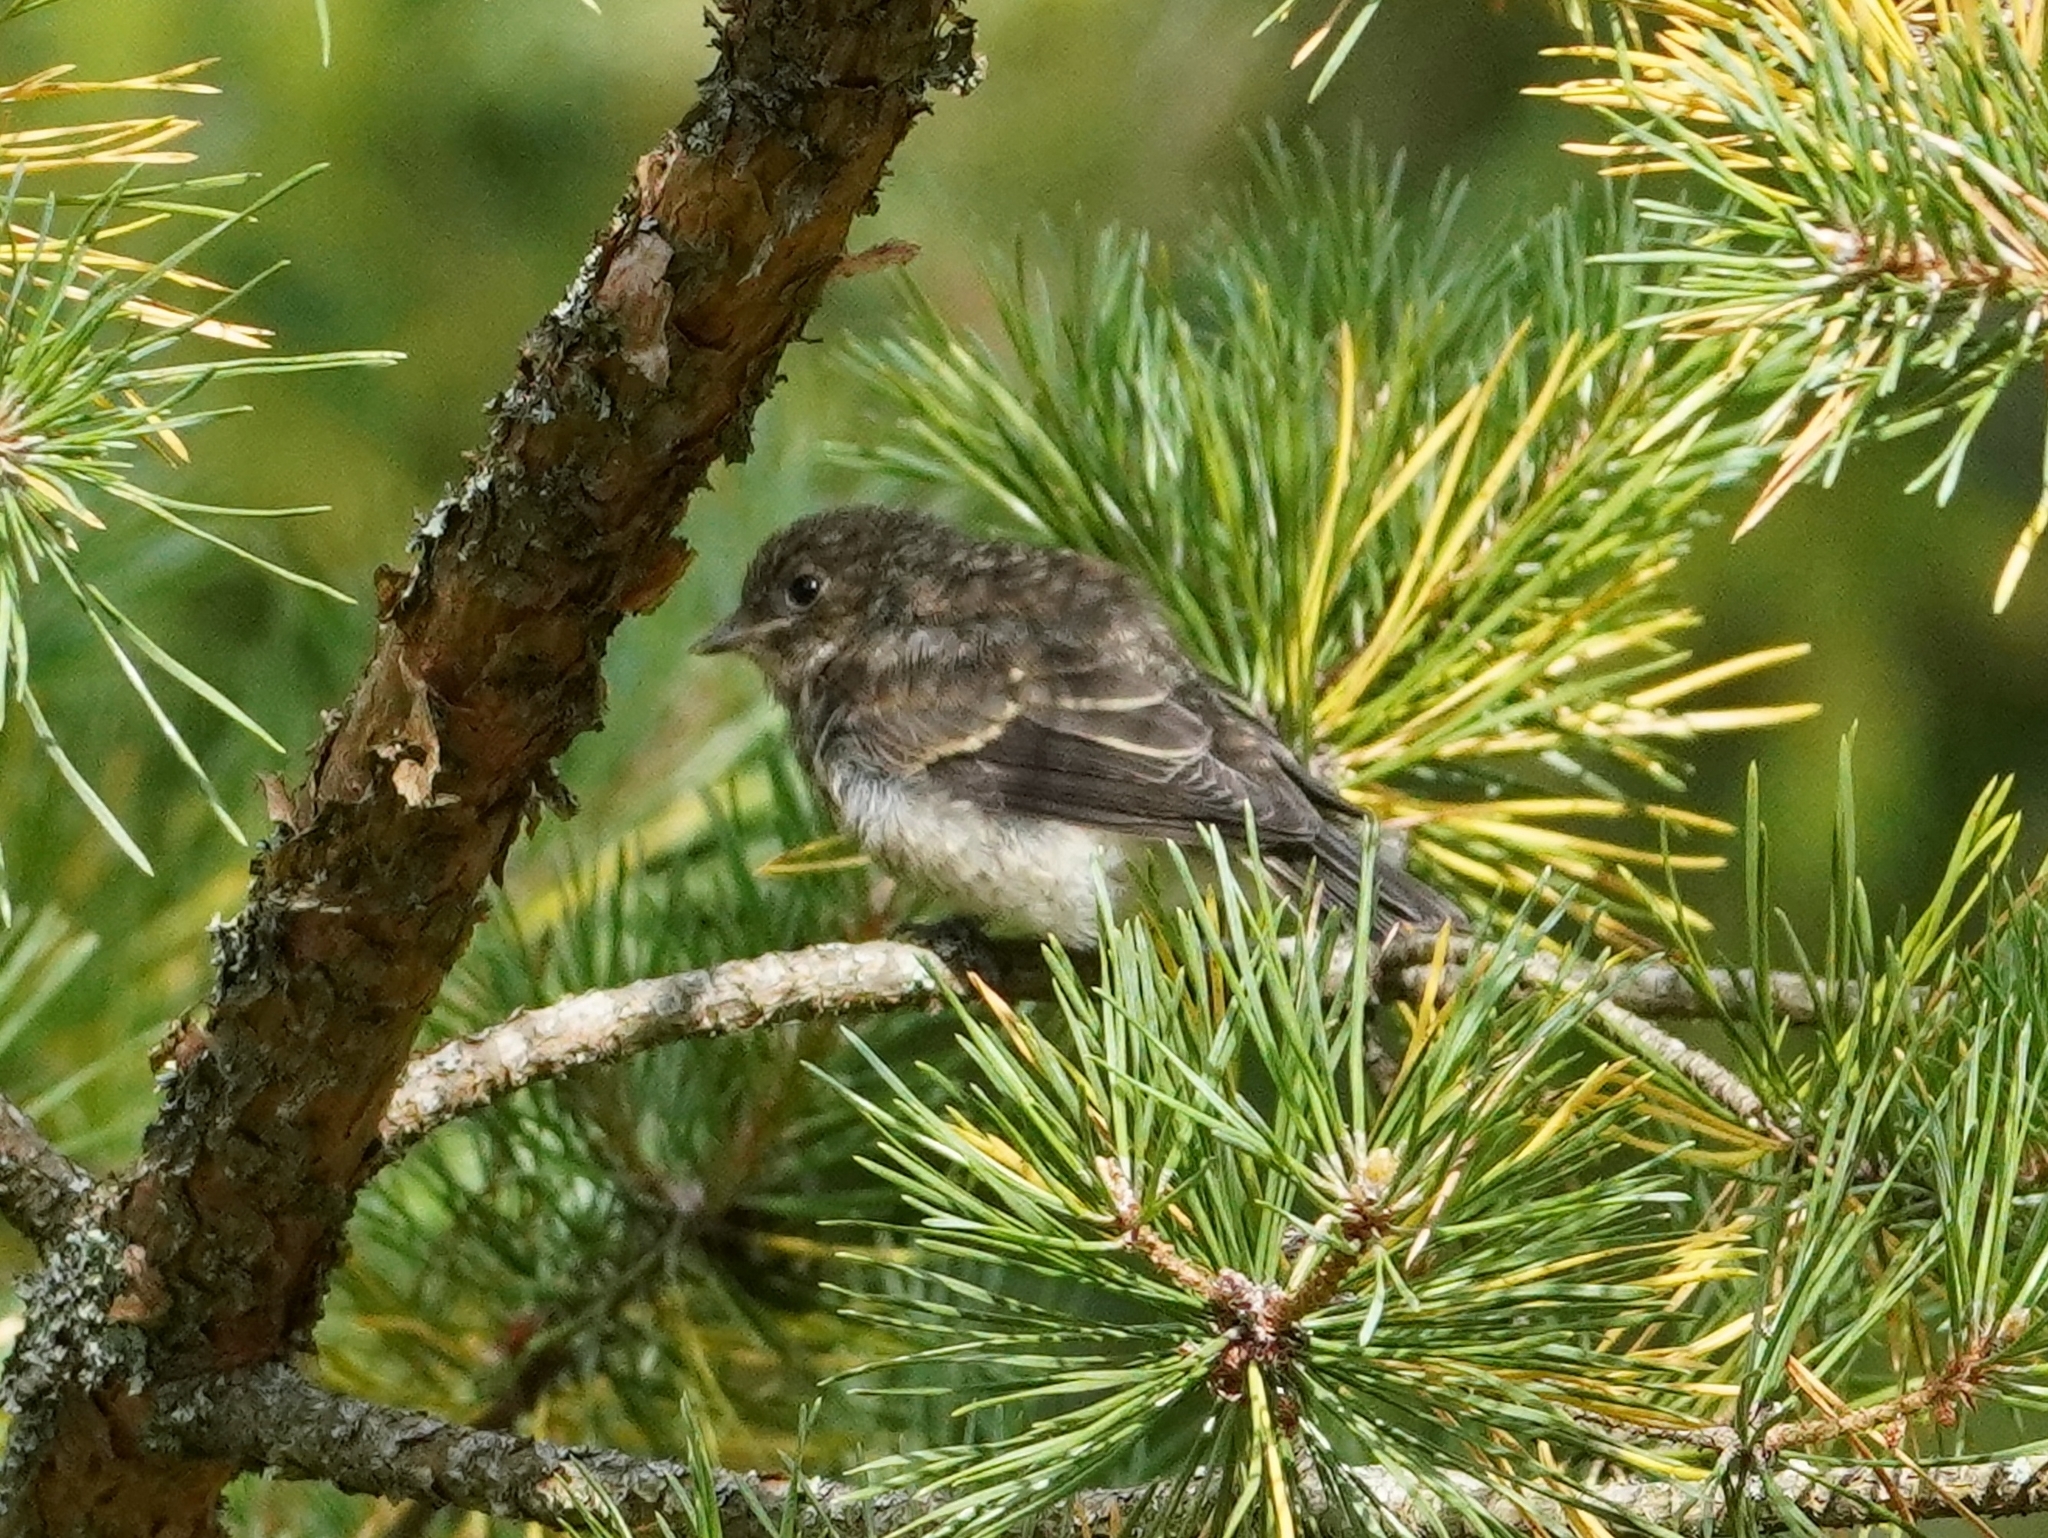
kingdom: Animalia
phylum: Chordata
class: Aves
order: Passeriformes
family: Muscicapidae
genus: Ficedula
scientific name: Ficedula hypoleuca
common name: European pied flycatcher
